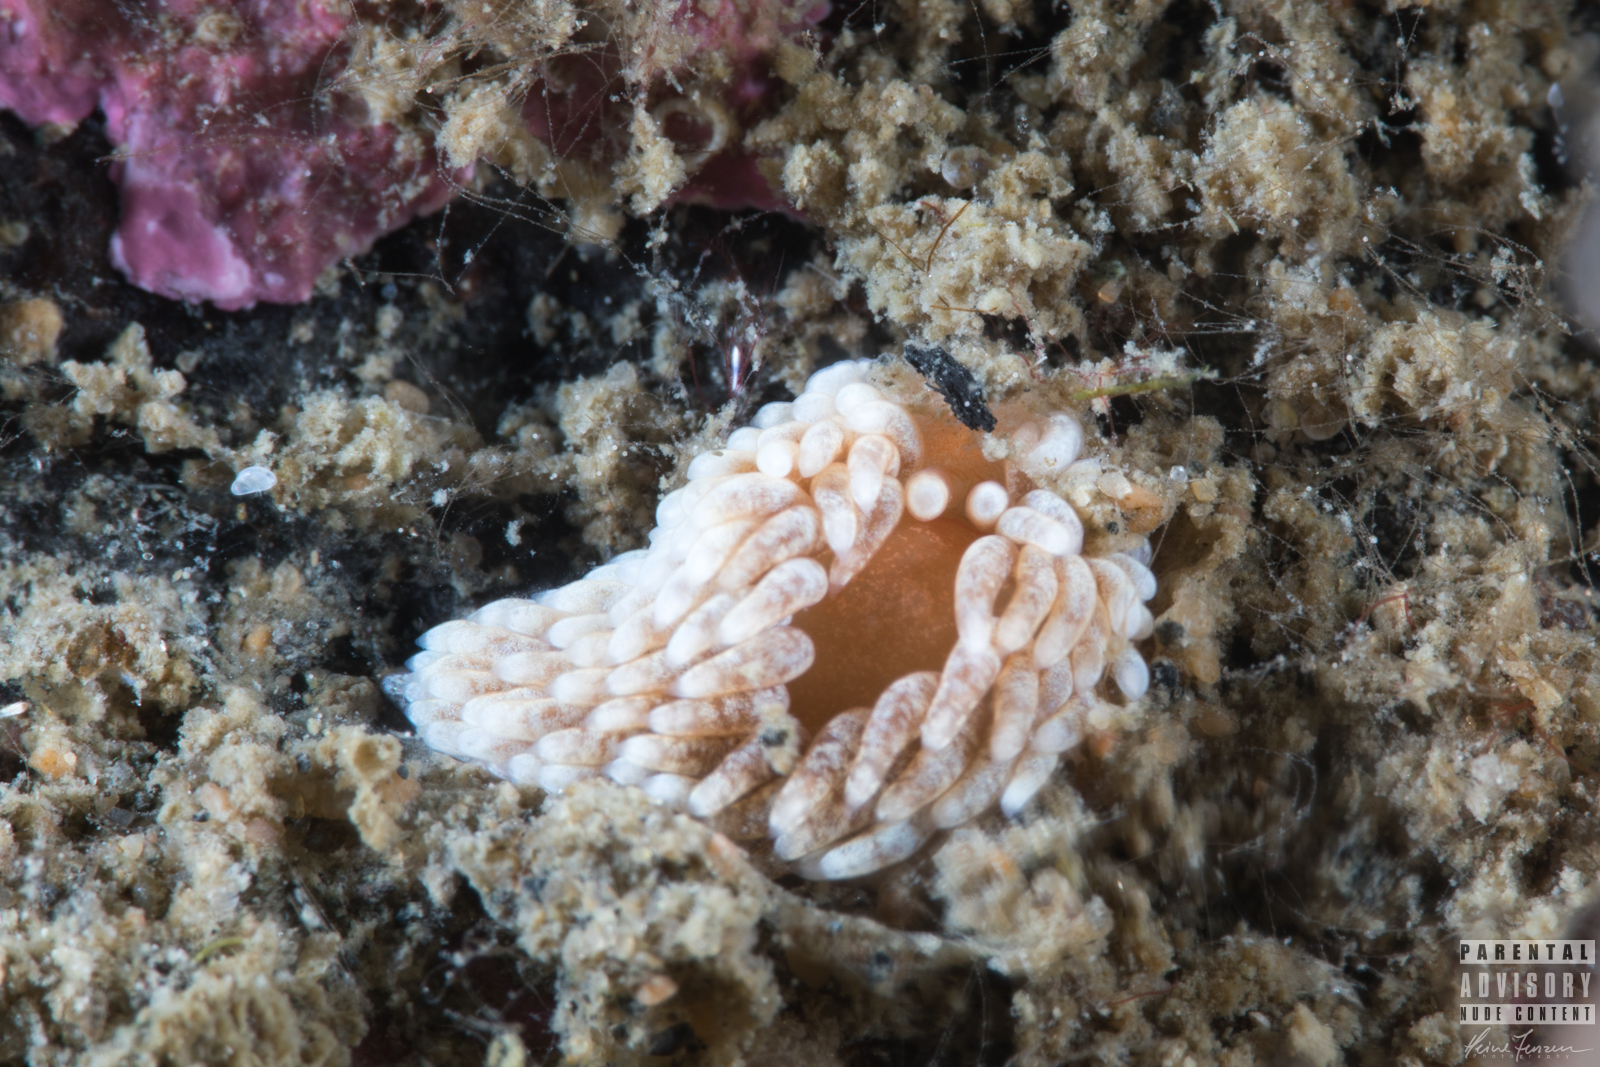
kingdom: Animalia
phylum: Mollusca
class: Gastropoda
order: Nudibranchia
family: Aeolidiidae
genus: Aeolidiella
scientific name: Aeolidiella glauca
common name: Orange-brown aeolid
